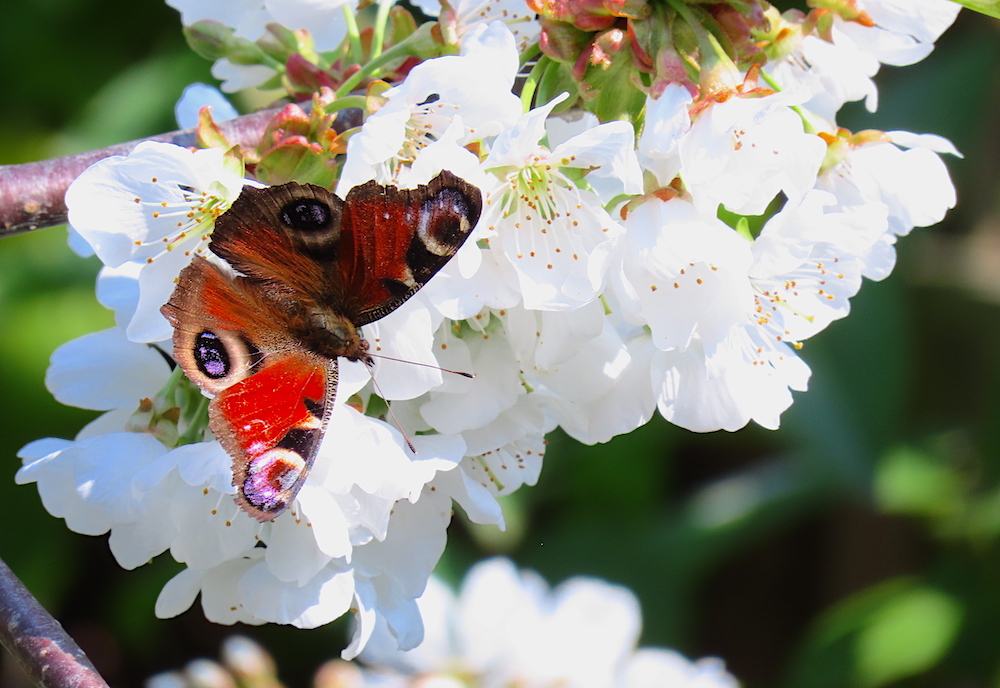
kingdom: Animalia
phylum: Arthropoda
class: Insecta
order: Lepidoptera
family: Nymphalidae
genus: Aglais
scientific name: Aglais io
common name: Peacock
